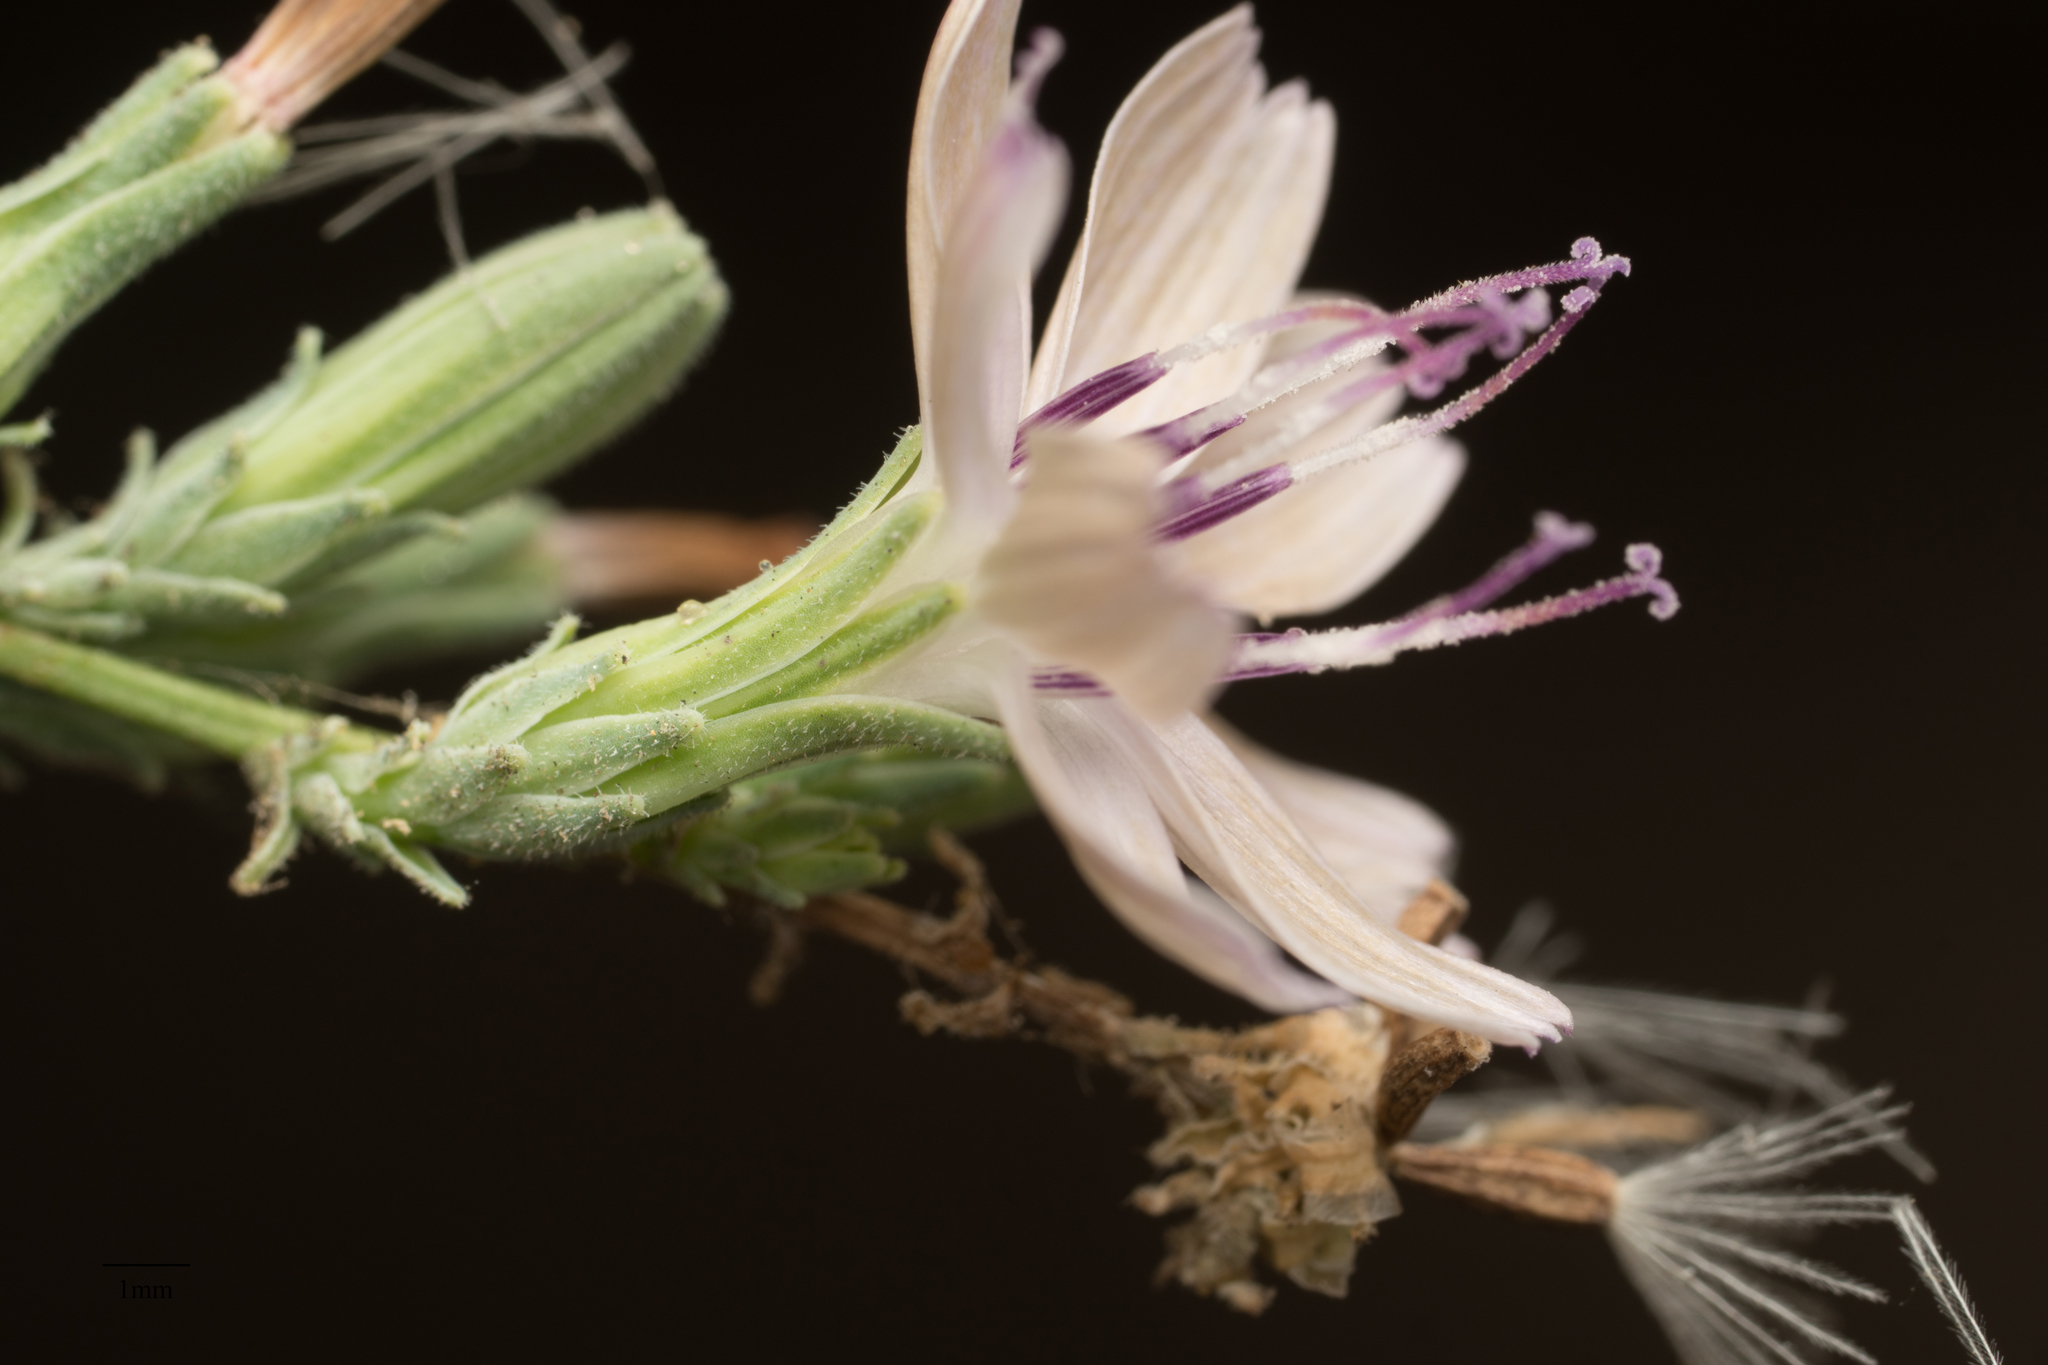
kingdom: Plantae
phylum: Tracheophyta
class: Magnoliopsida
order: Asterales
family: Asteraceae
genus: Stephanomeria
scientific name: Stephanomeria virgata
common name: Virgate wirelettuce
